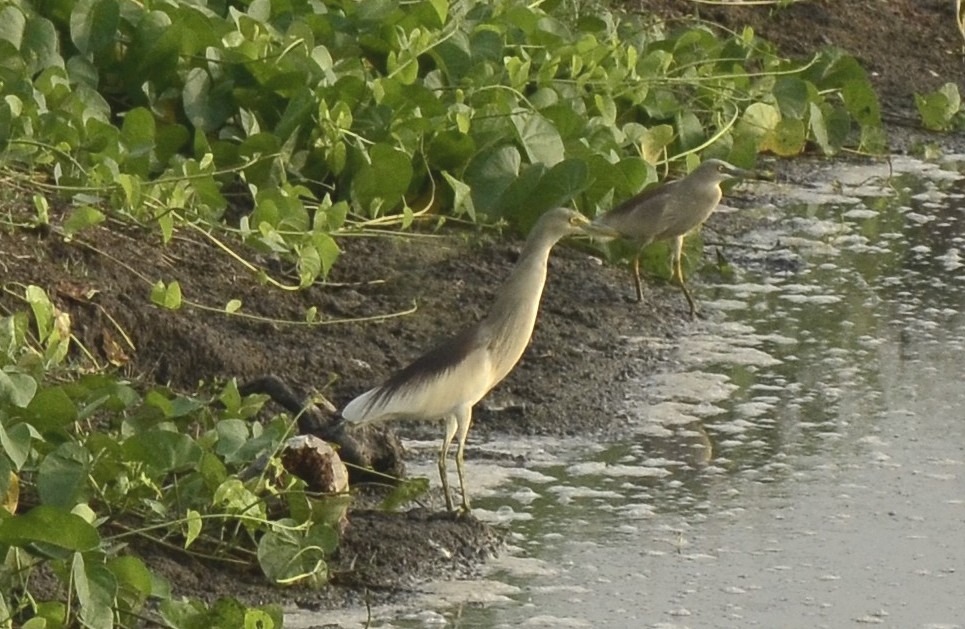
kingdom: Animalia
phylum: Chordata
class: Aves
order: Pelecaniformes
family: Ardeidae
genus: Ardeola
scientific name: Ardeola grayii
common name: Indian pond heron
